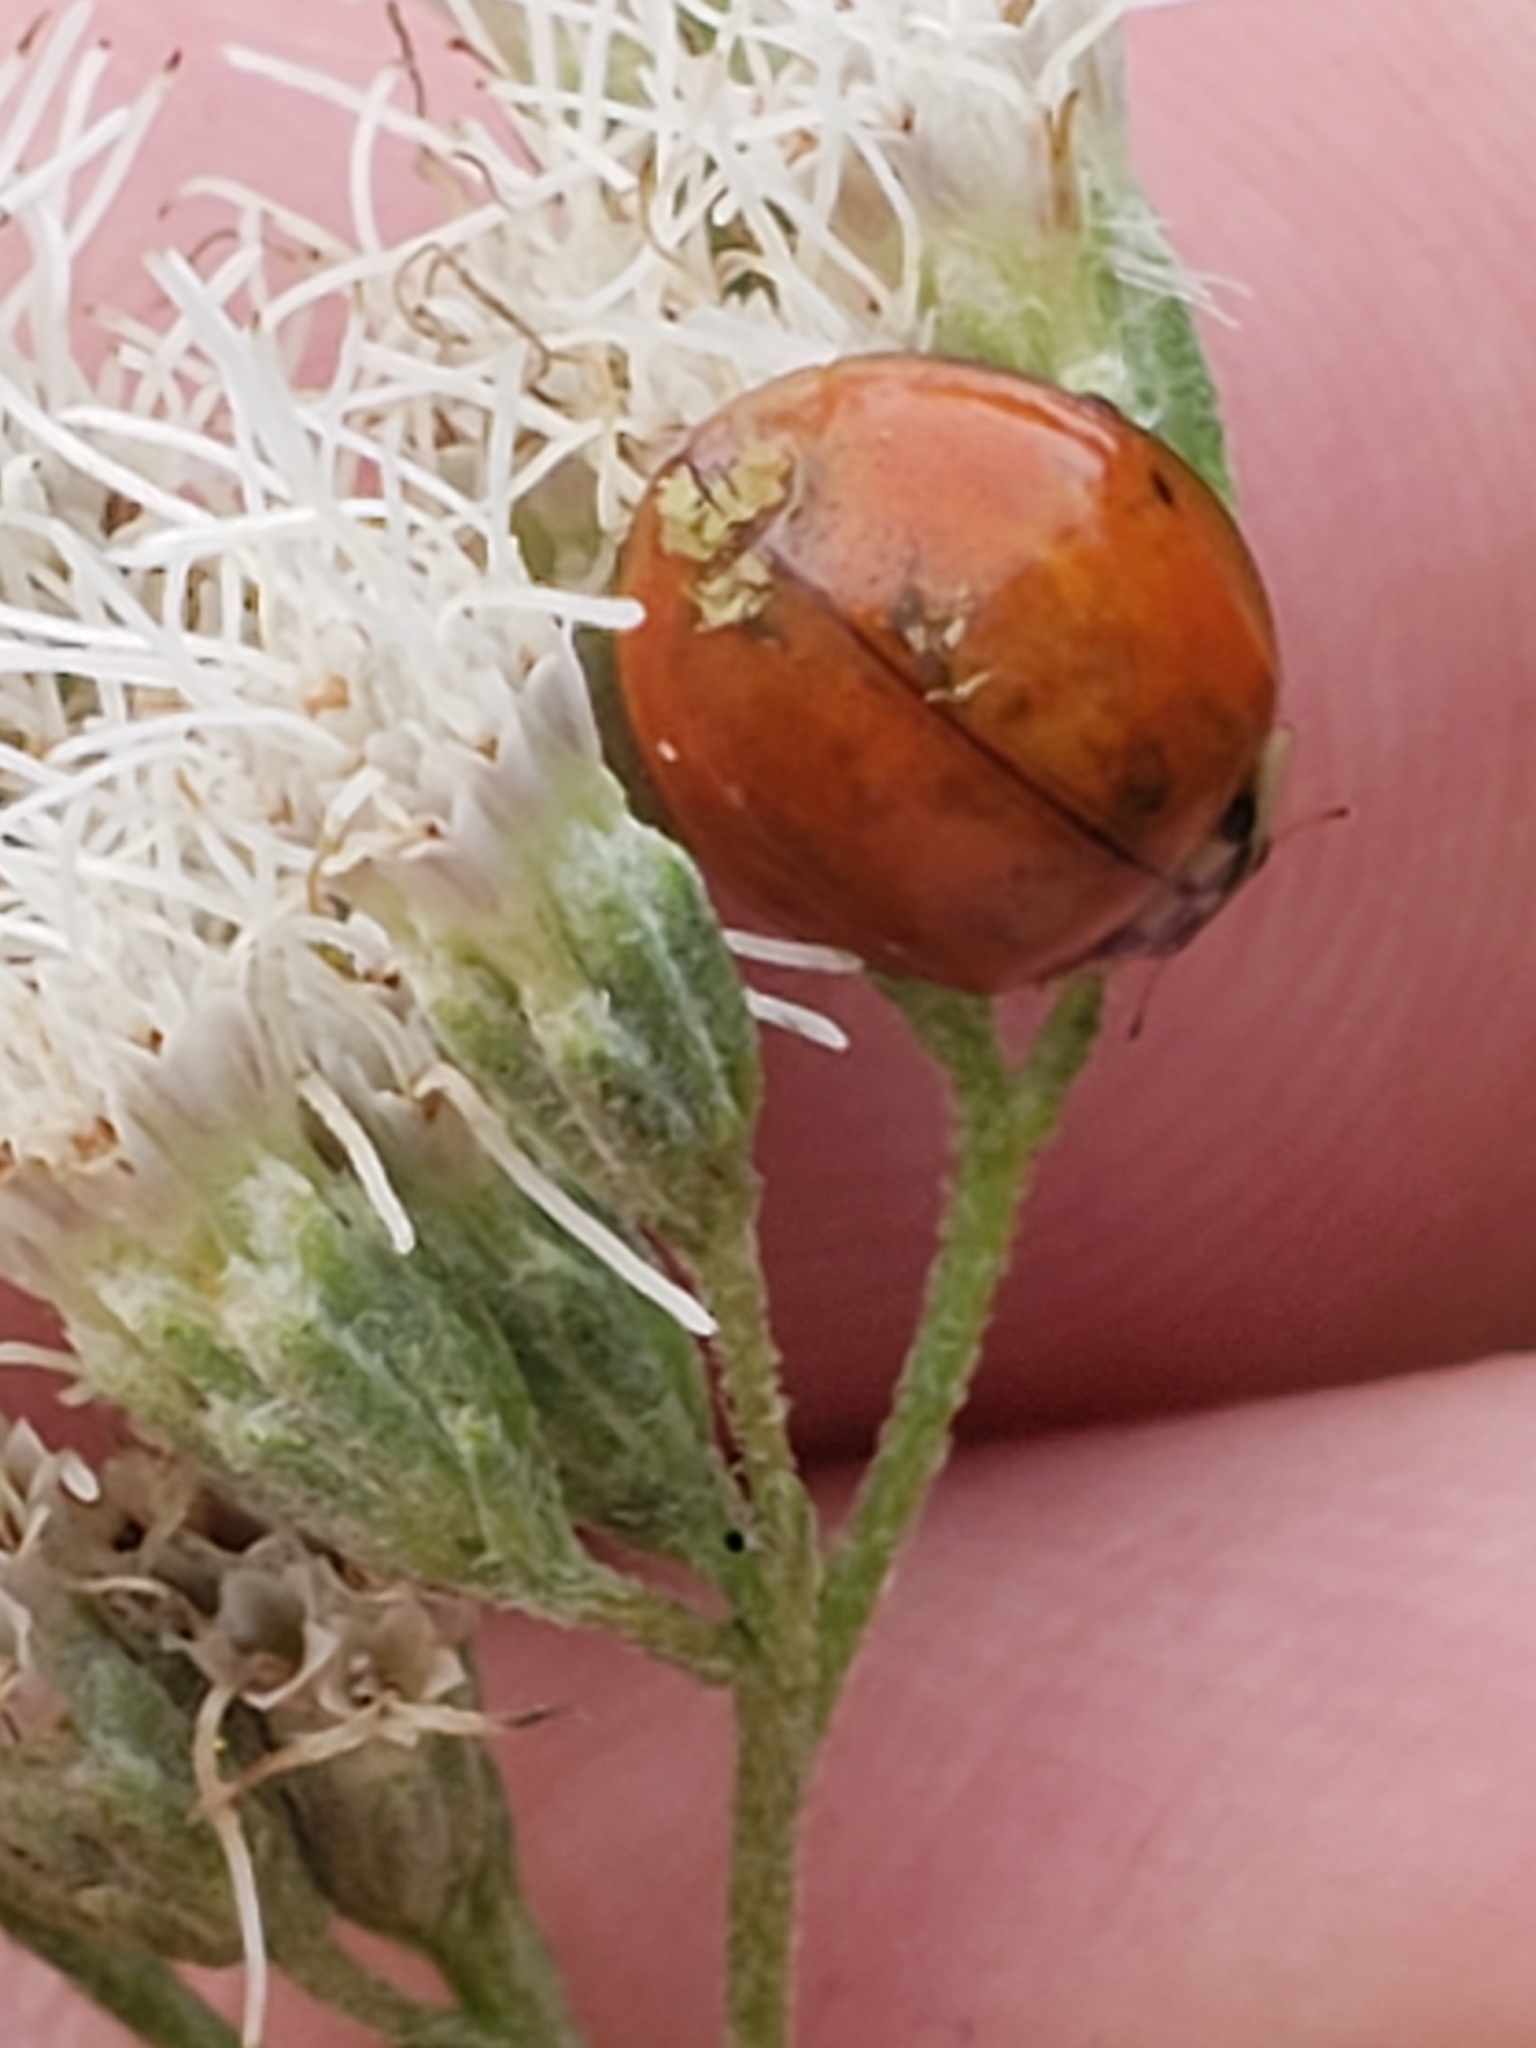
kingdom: Fungi
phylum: Ascomycota
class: Laboulbeniomycetes
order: Laboulbeniales
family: Laboulbeniaceae
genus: Hesperomyces
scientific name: Hesperomyces harmoniae
